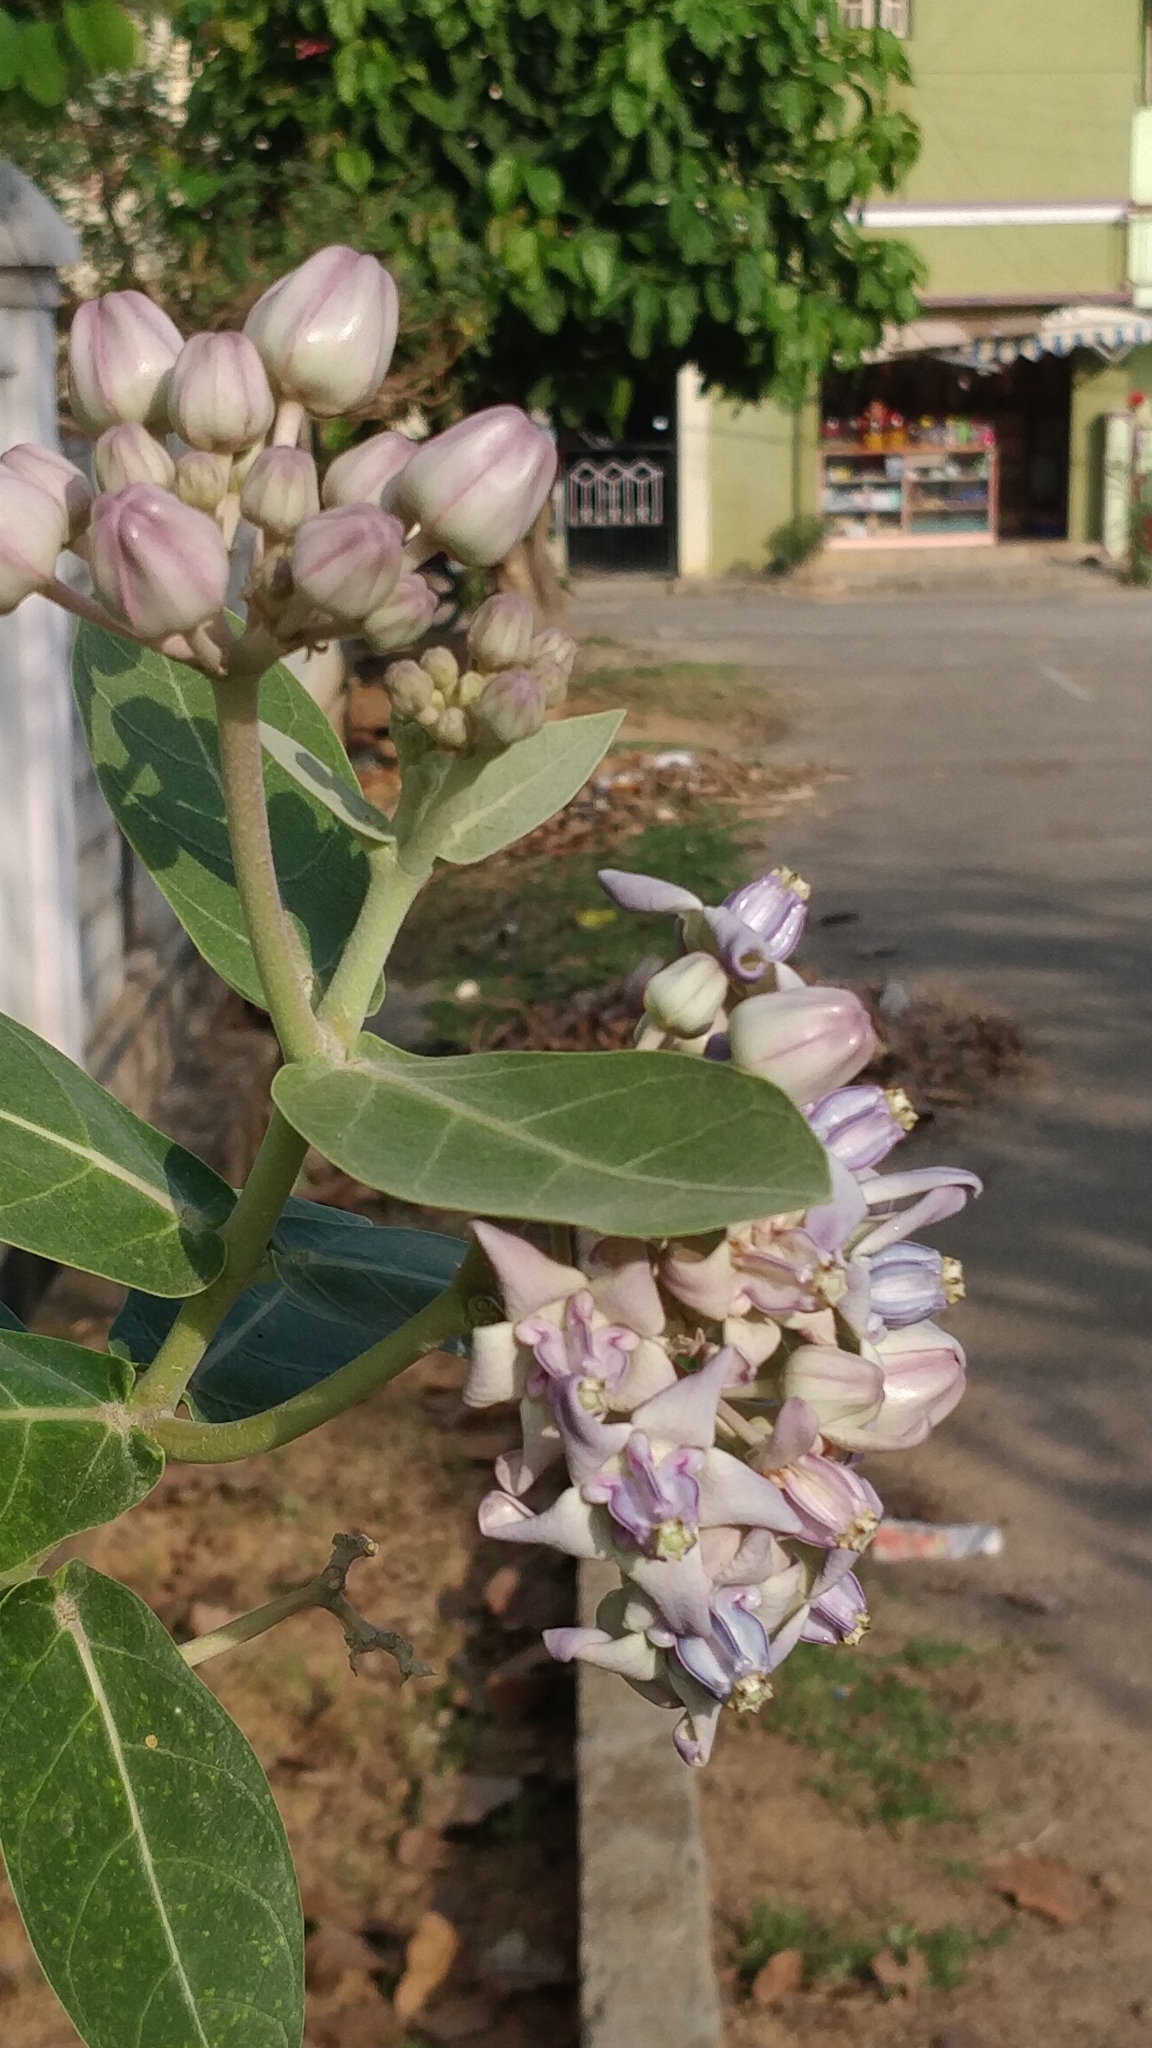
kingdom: Plantae
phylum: Tracheophyta
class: Magnoliopsida
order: Gentianales
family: Apocynaceae
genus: Calotropis
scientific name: Calotropis gigantea
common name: Crown flower
